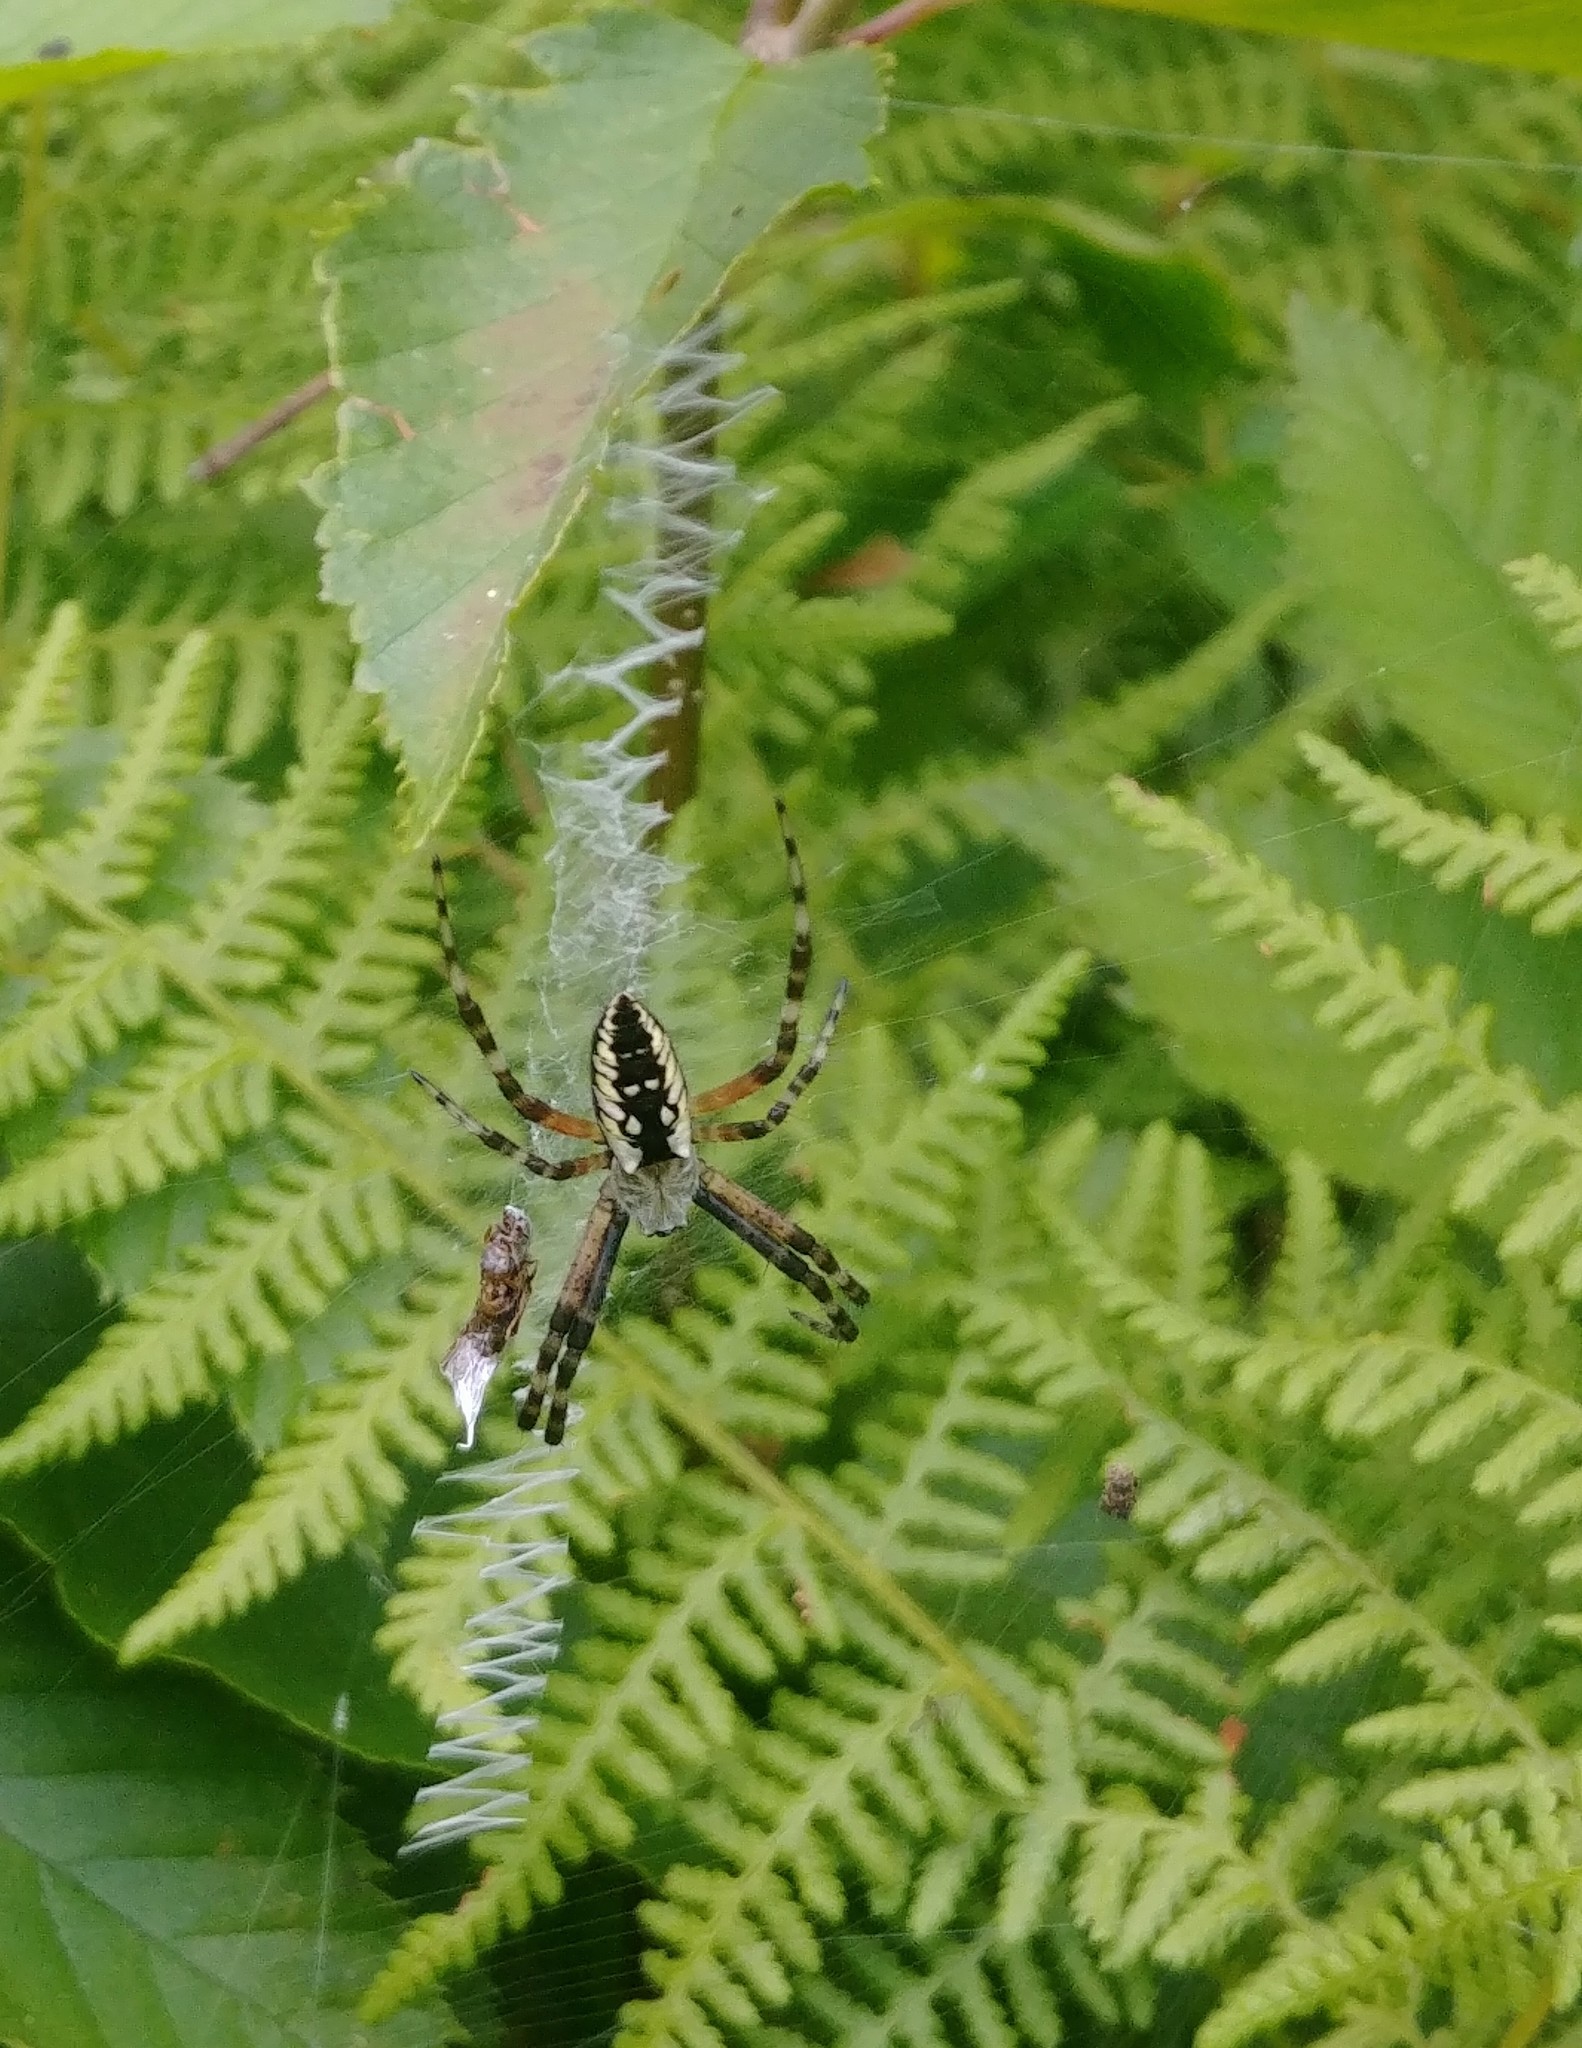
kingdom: Animalia
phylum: Arthropoda
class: Arachnida
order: Araneae
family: Araneidae
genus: Argiope
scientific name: Argiope aurantia
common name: Orb weavers
